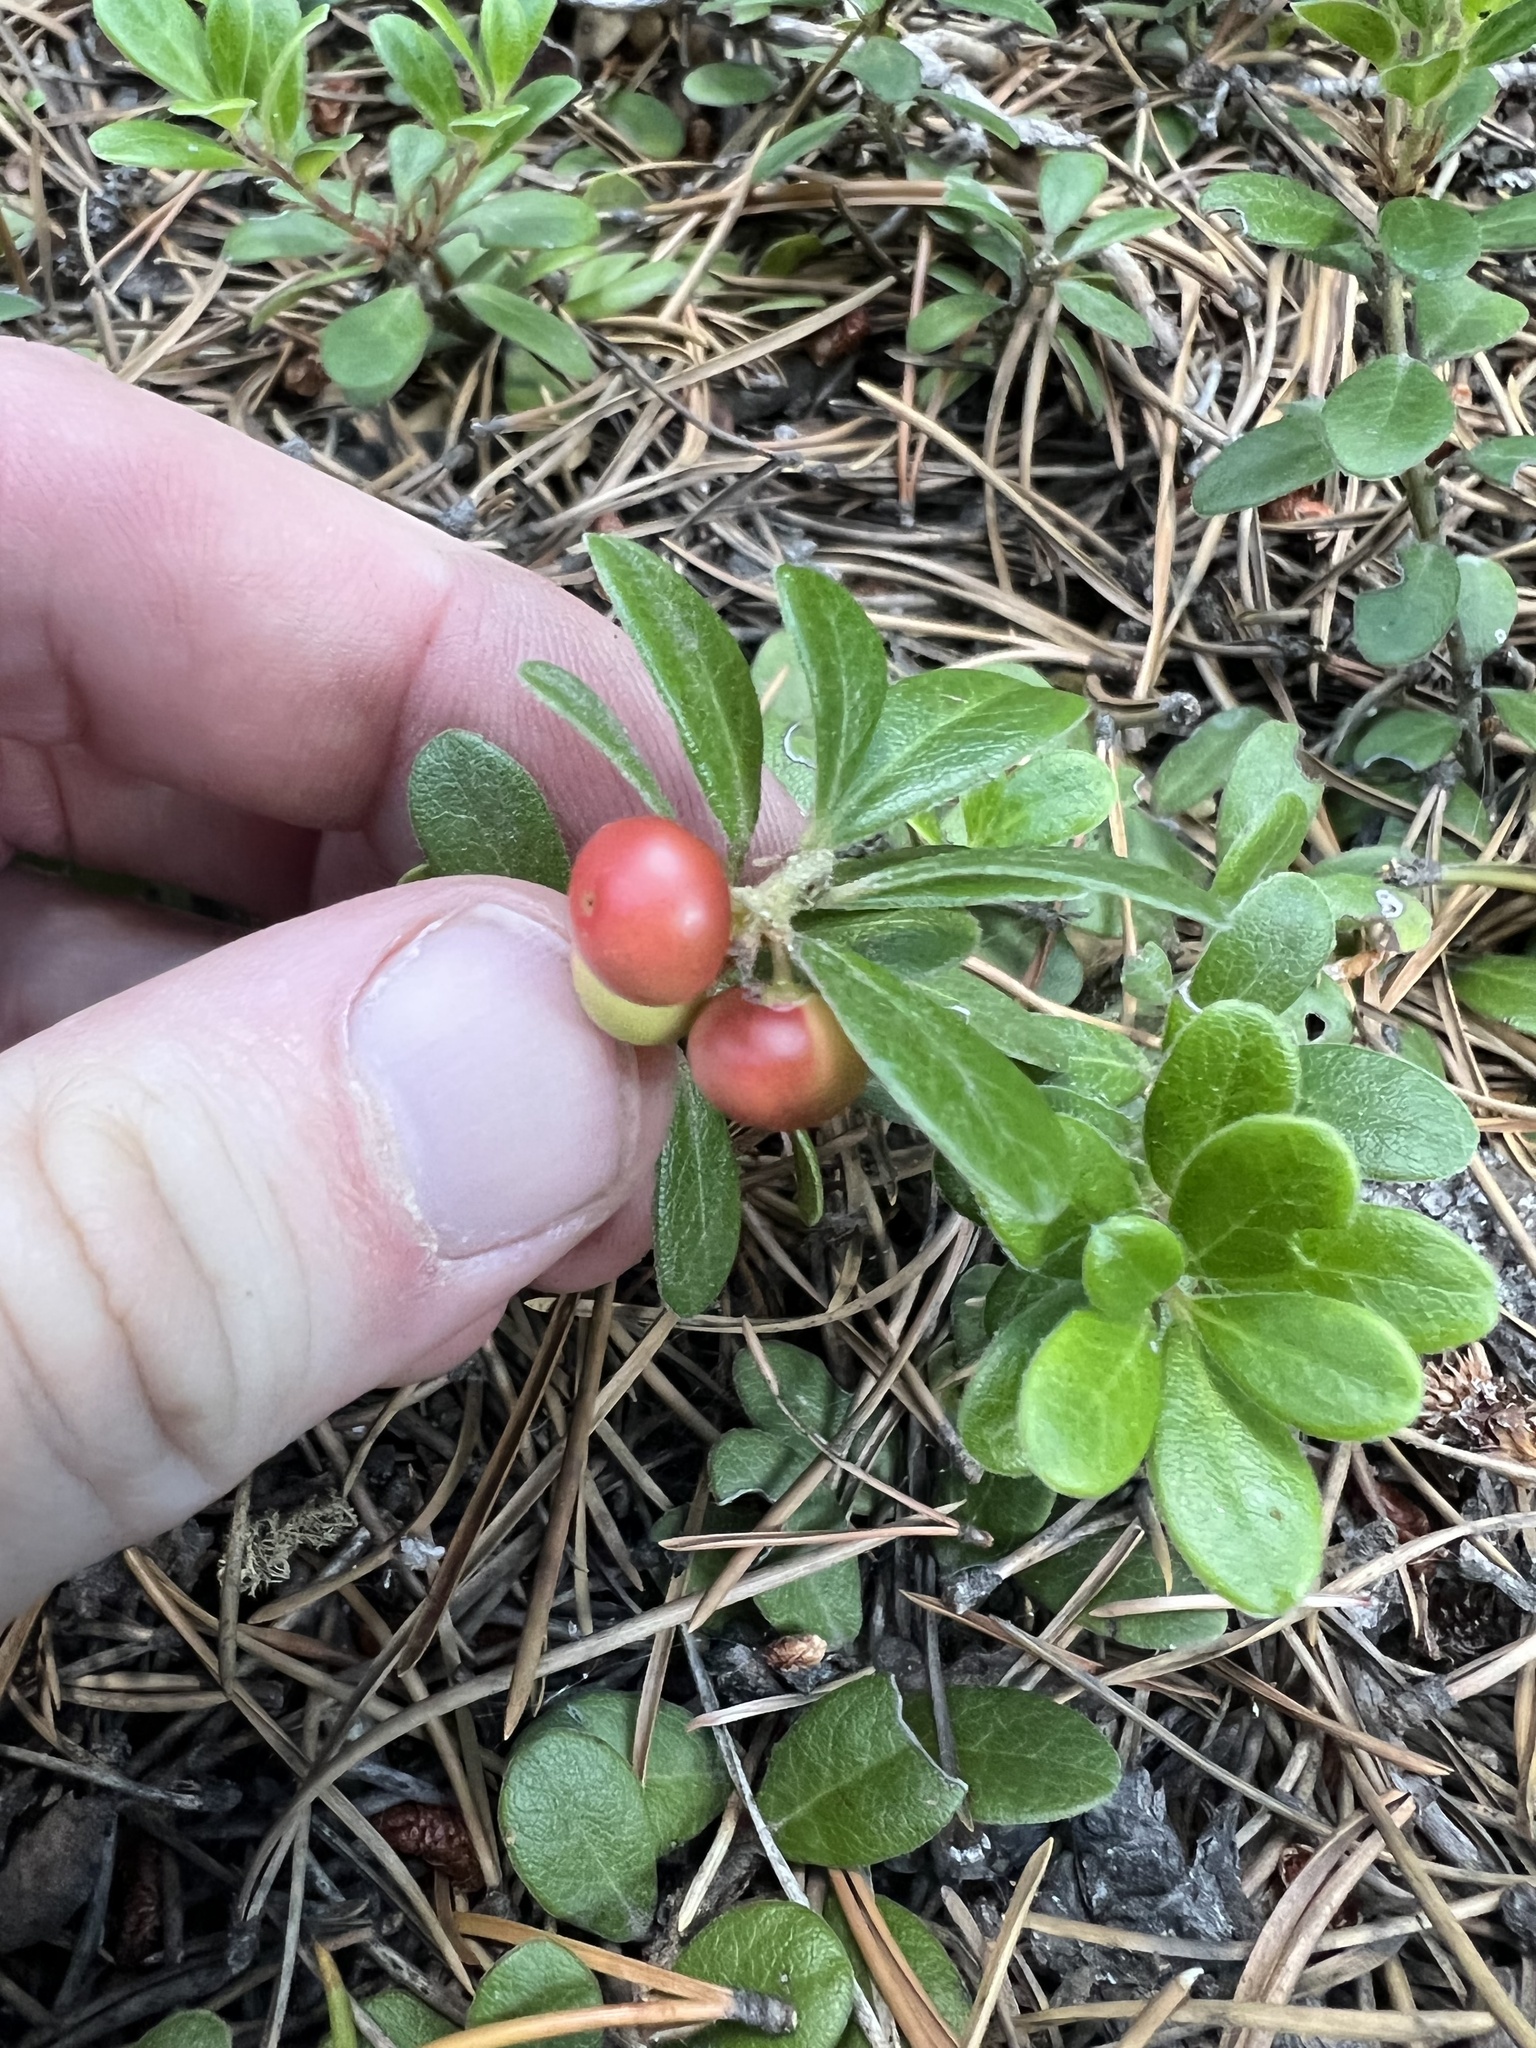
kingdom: Plantae
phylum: Tracheophyta
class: Magnoliopsida
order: Ericales
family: Ericaceae
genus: Arctostaphylos
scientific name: Arctostaphylos uva-ursi
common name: Bearberry
